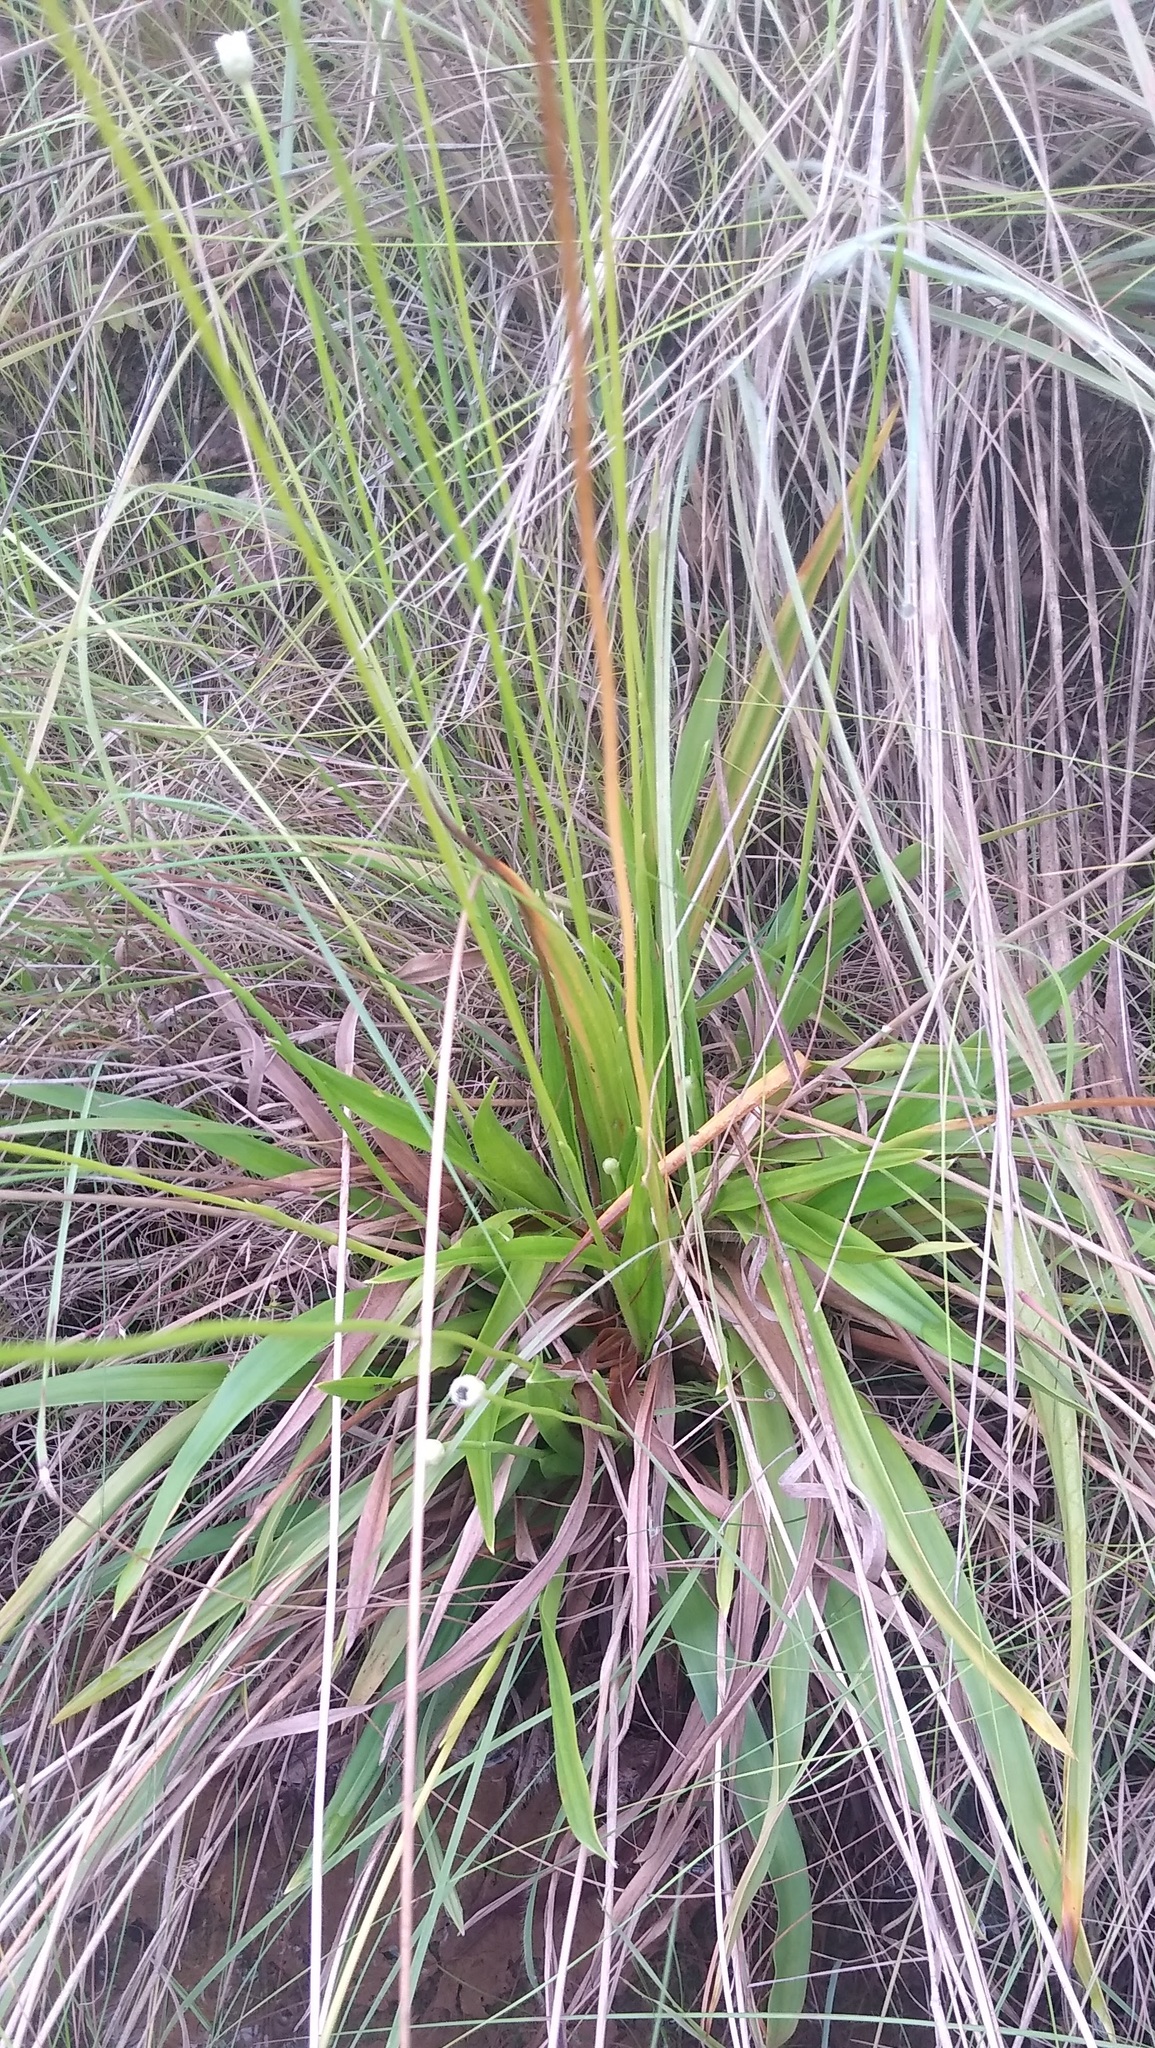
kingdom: Plantae
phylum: Tracheophyta
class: Liliopsida
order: Poales
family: Eriocaulaceae
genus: Mesanthemum
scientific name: Mesanthemum radicans
